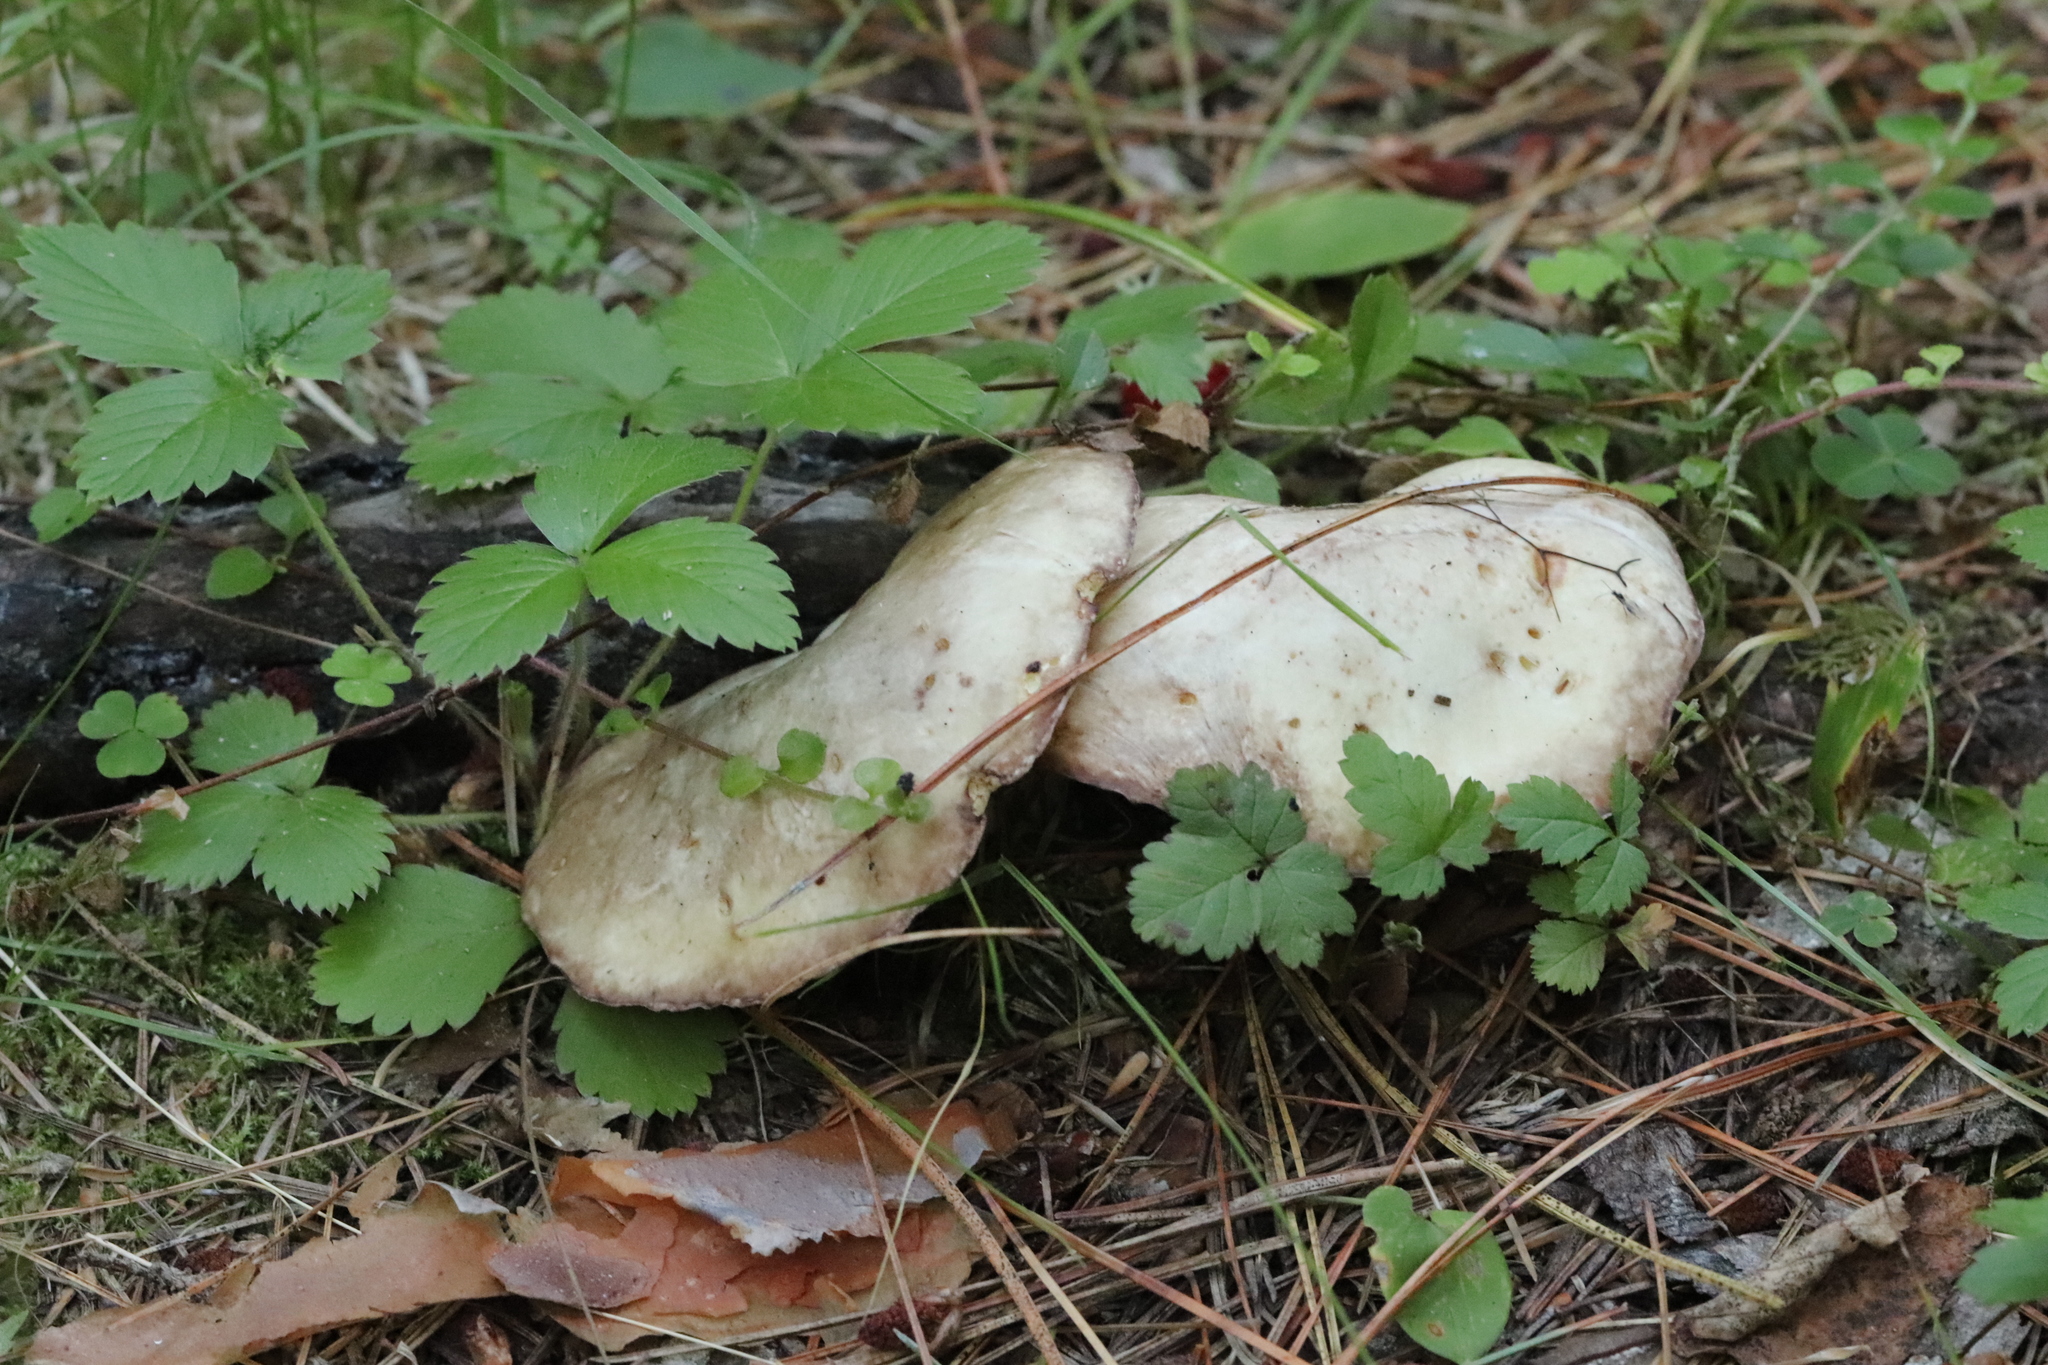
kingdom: Fungi
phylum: Basidiomycota
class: Agaricomycetes
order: Boletales
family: Suillaceae
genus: Suillus
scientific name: Suillus placidus
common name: Slippery white bolete
